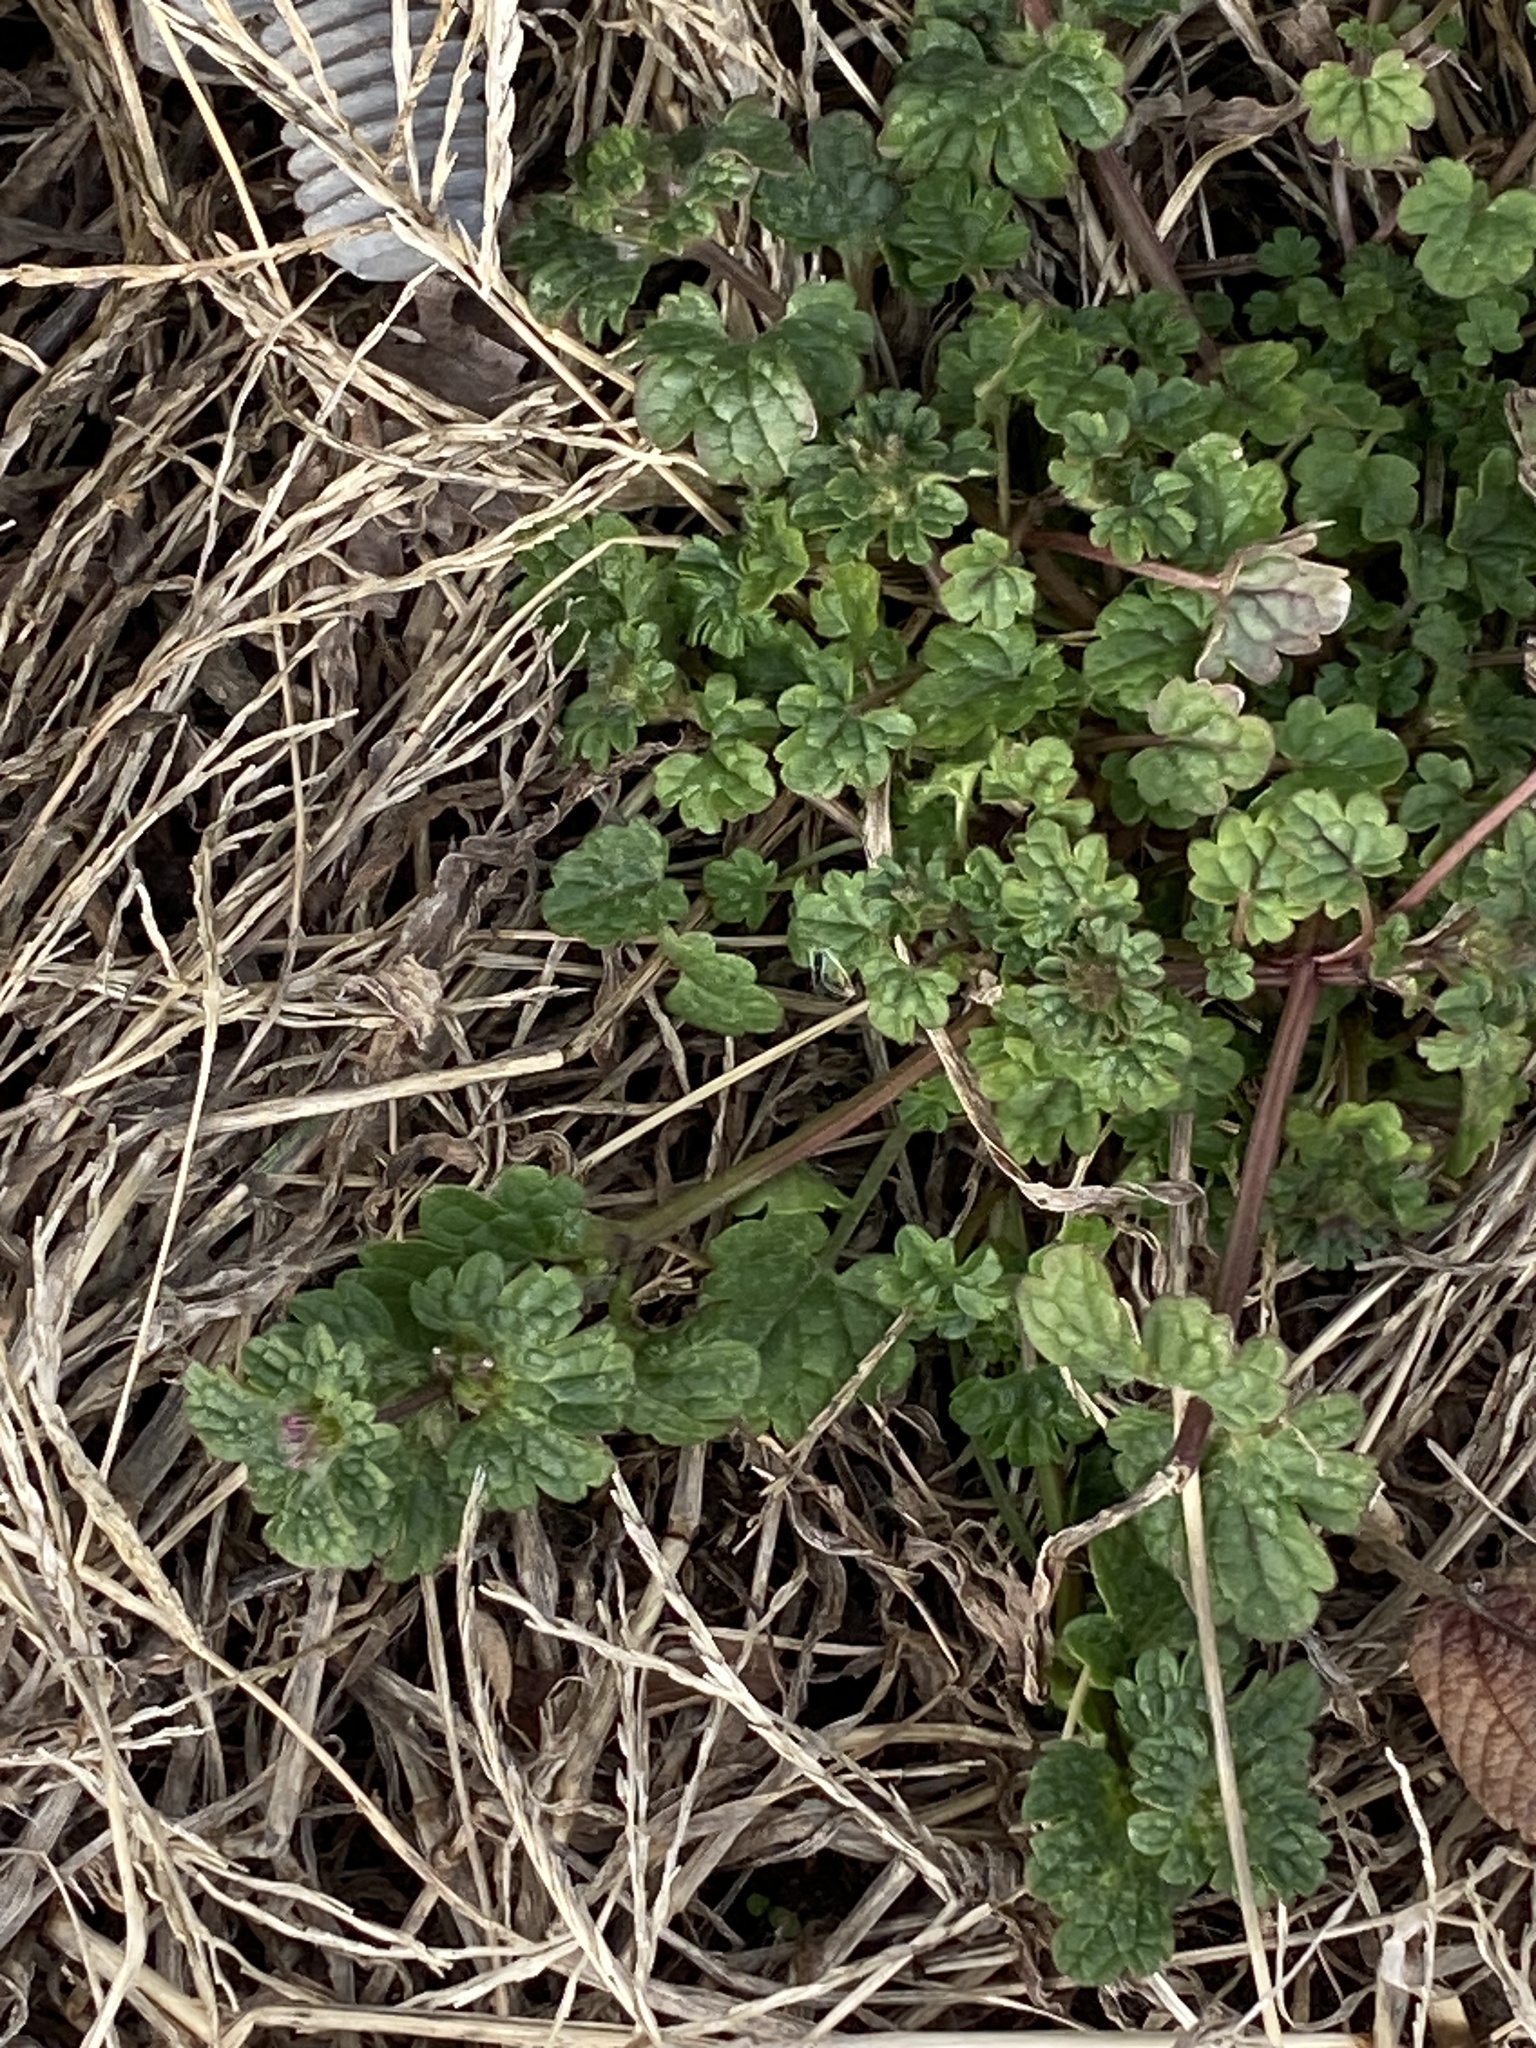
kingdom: Plantae
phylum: Tracheophyta
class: Magnoliopsida
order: Lamiales
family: Lamiaceae
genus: Lamium
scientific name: Lamium amplexicaule
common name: Henbit dead-nettle
